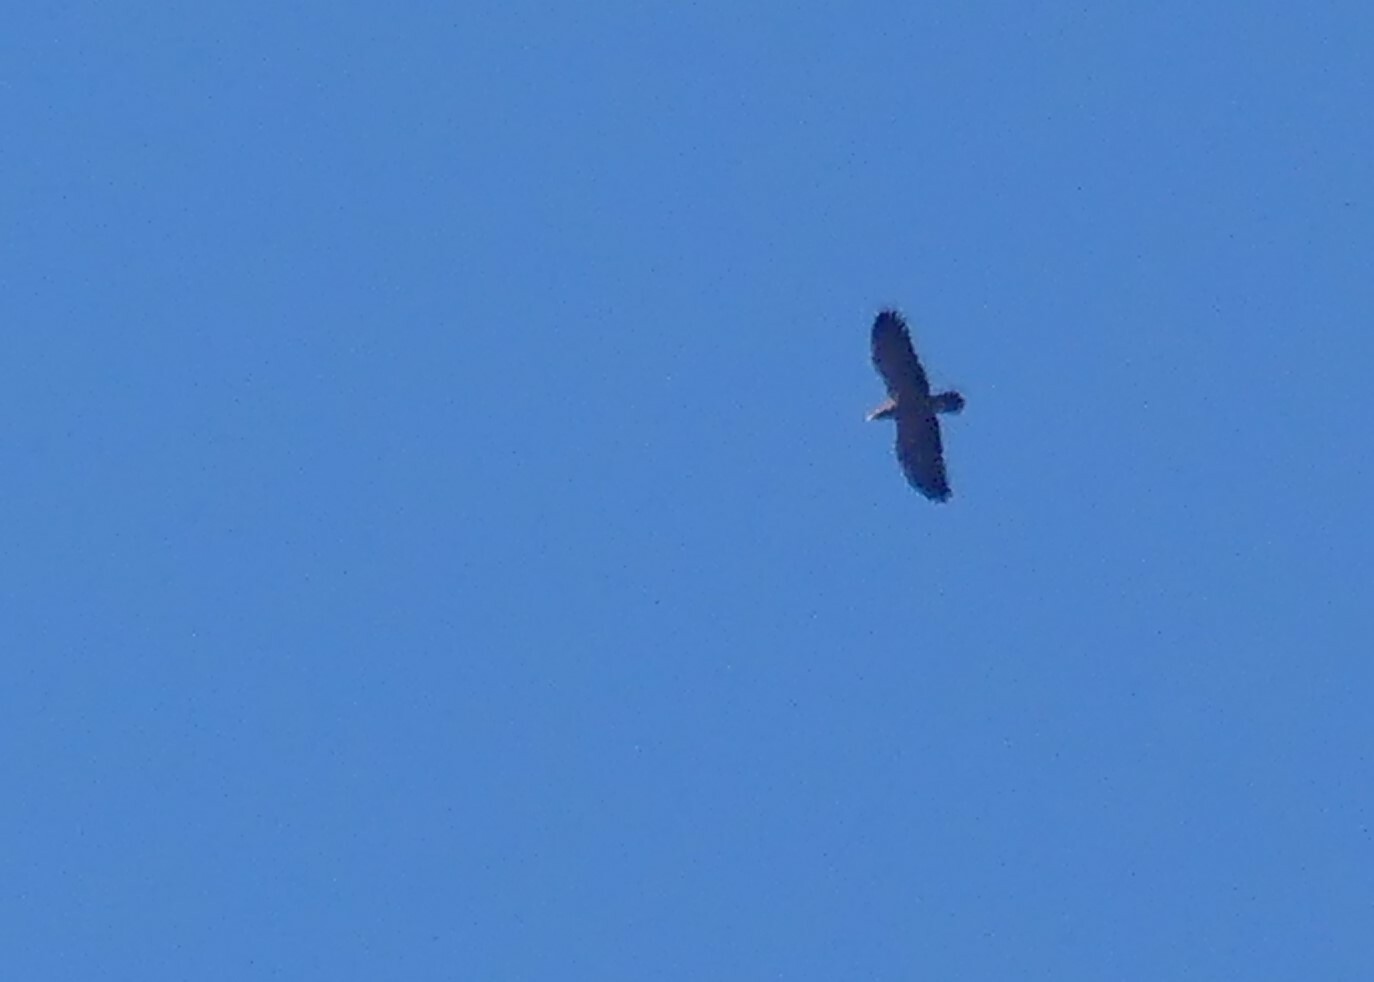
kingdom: Animalia
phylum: Chordata
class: Aves
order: Accipitriformes
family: Accipitridae
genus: Aquila
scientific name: Aquila pomarina
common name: Lesser spotted eagle
